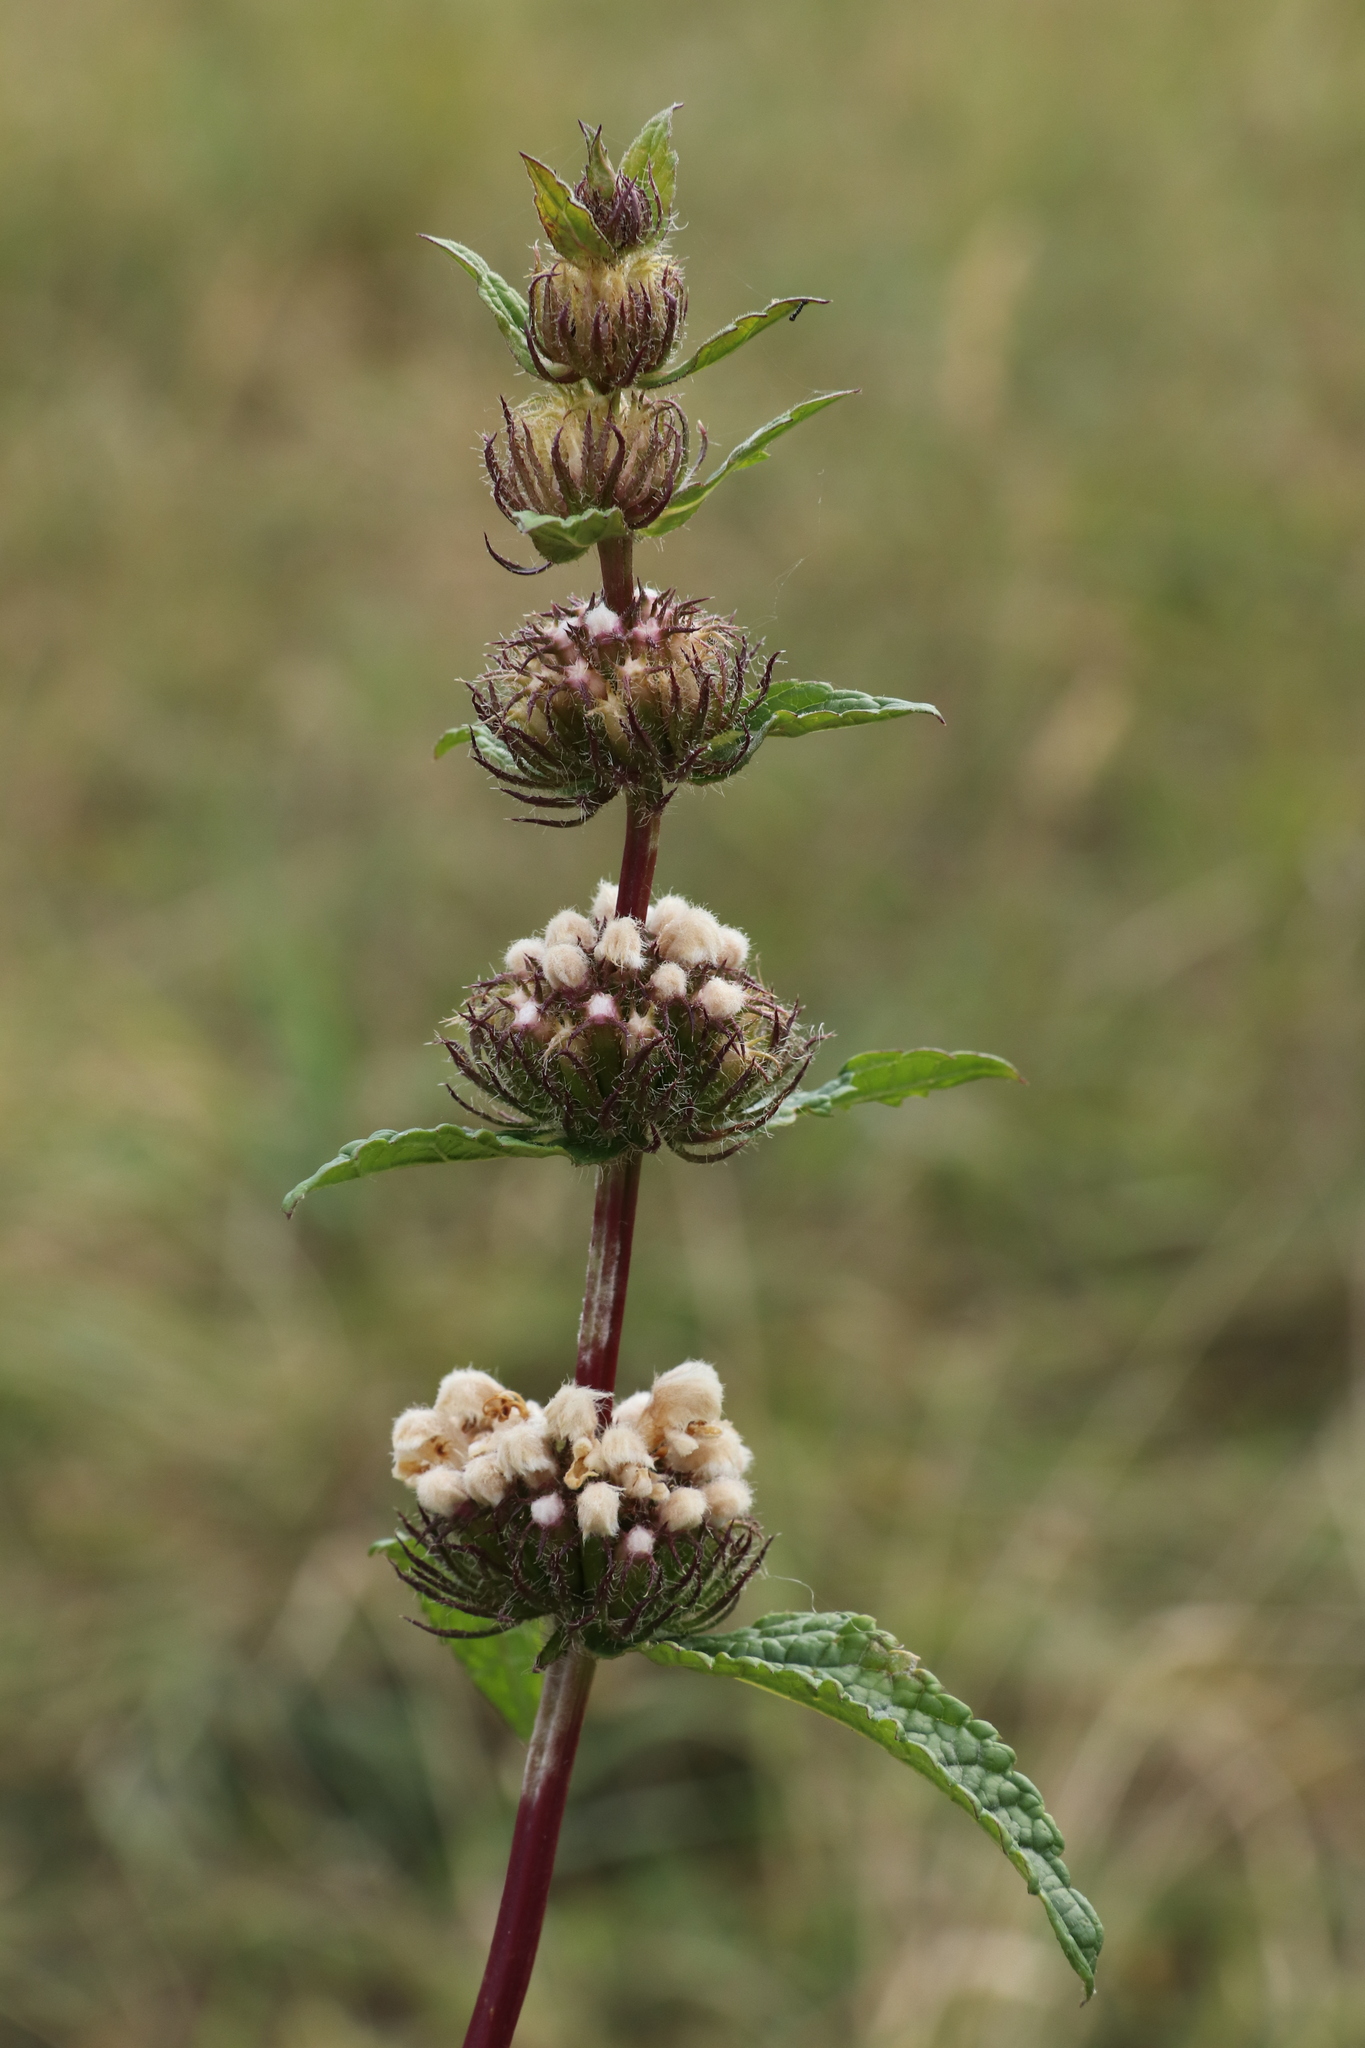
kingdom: Plantae
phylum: Tracheophyta
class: Magnoliopsida
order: Lamiales
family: Lamiaceae
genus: Phlomoides
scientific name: Phlomoides tuberosa
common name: Tuberous jerusalem sage
